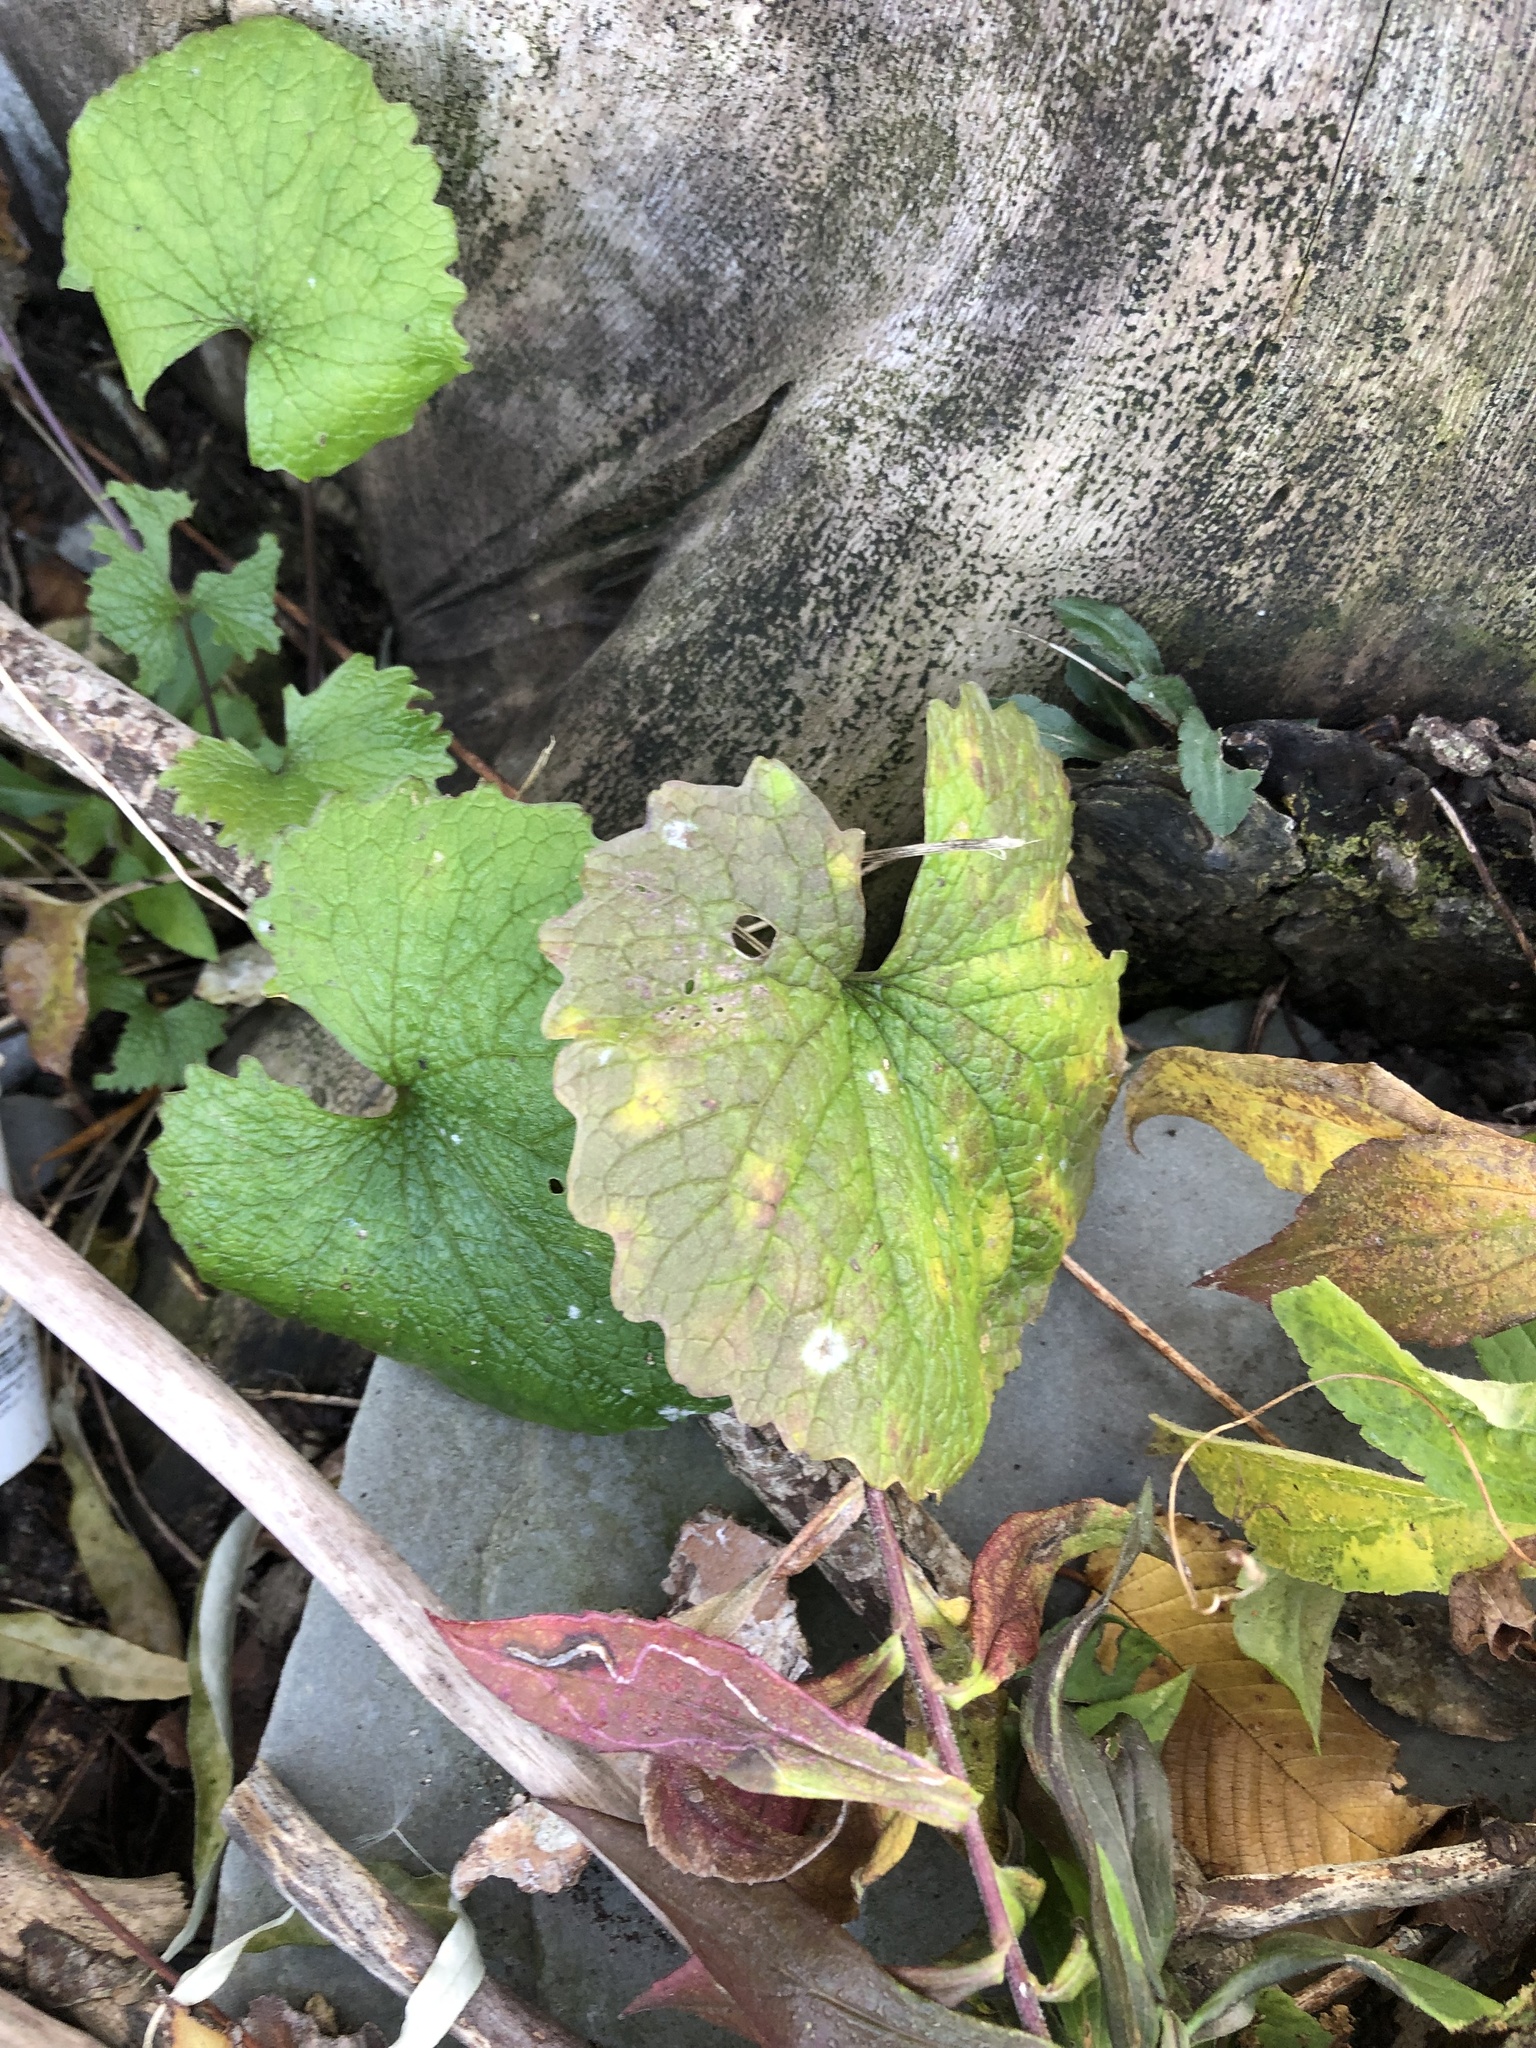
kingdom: Plantae
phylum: Tracheophyta
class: Magnoliopsida
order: Brassicales
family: Brassicaceae
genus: Alliaria
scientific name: Alliaria petiolata
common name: Garlic mustard
